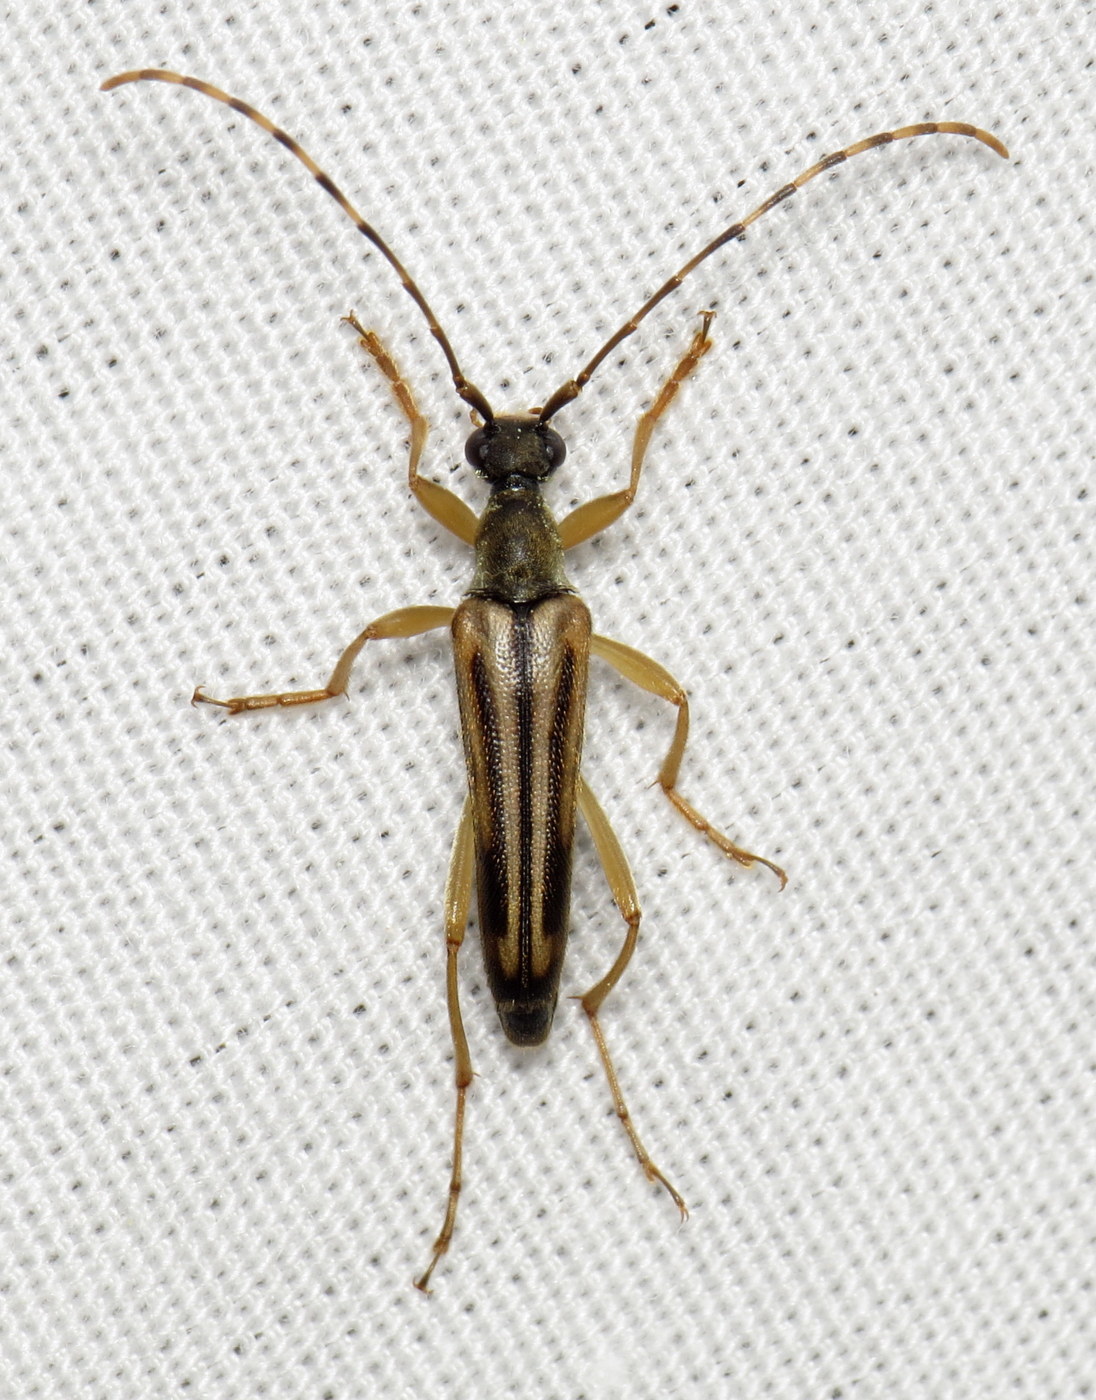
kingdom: Animalia
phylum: Arthropoda
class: Insecta
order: Coleoptera
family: Cerambycidae
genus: Analeptura
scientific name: Analeptura lineola
